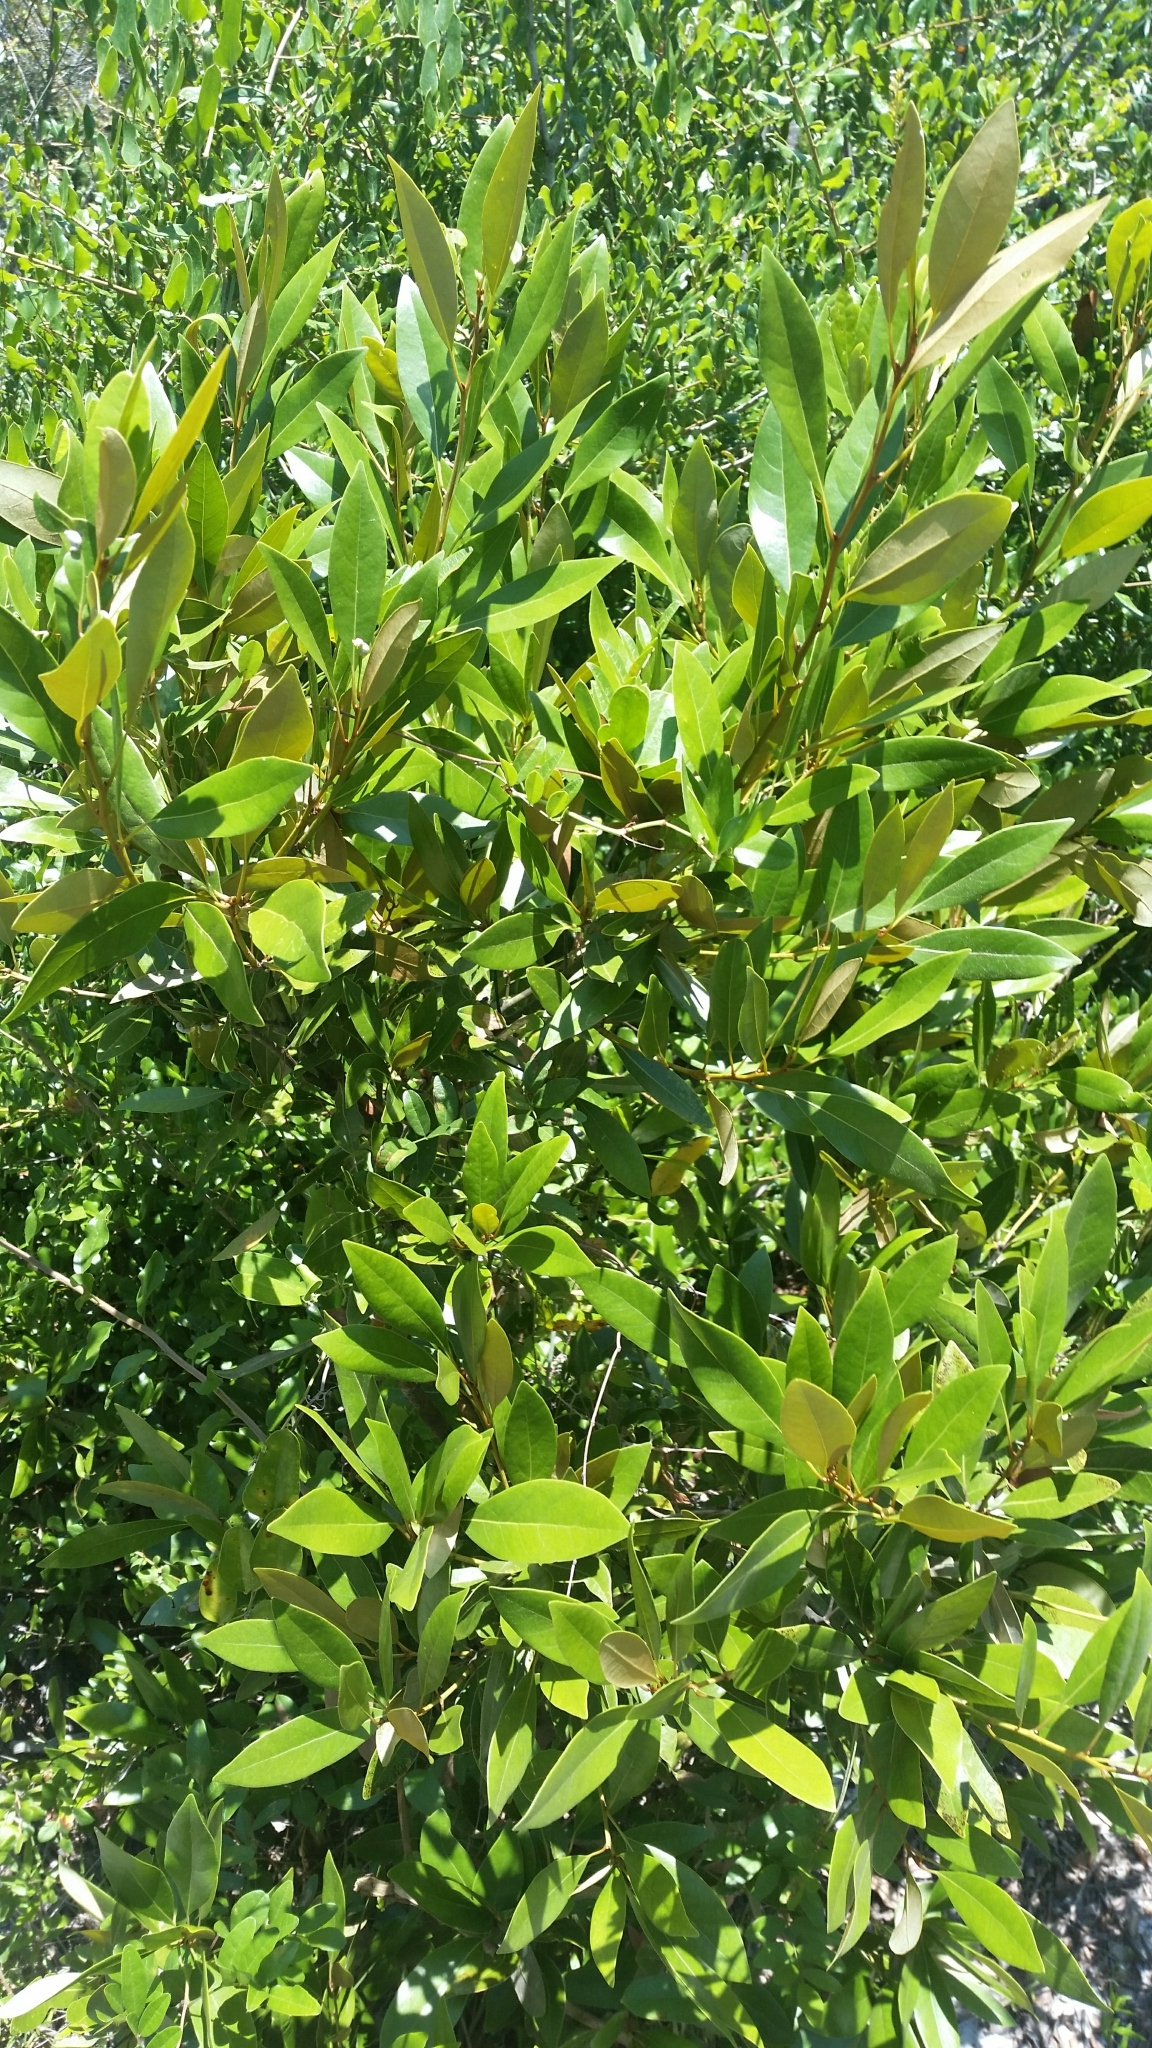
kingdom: Plantae
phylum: Tracheophyta
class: Magnoliopsida
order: Laurales
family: Lauraceae
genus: Persea
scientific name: Persea humilis
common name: Silkbay
